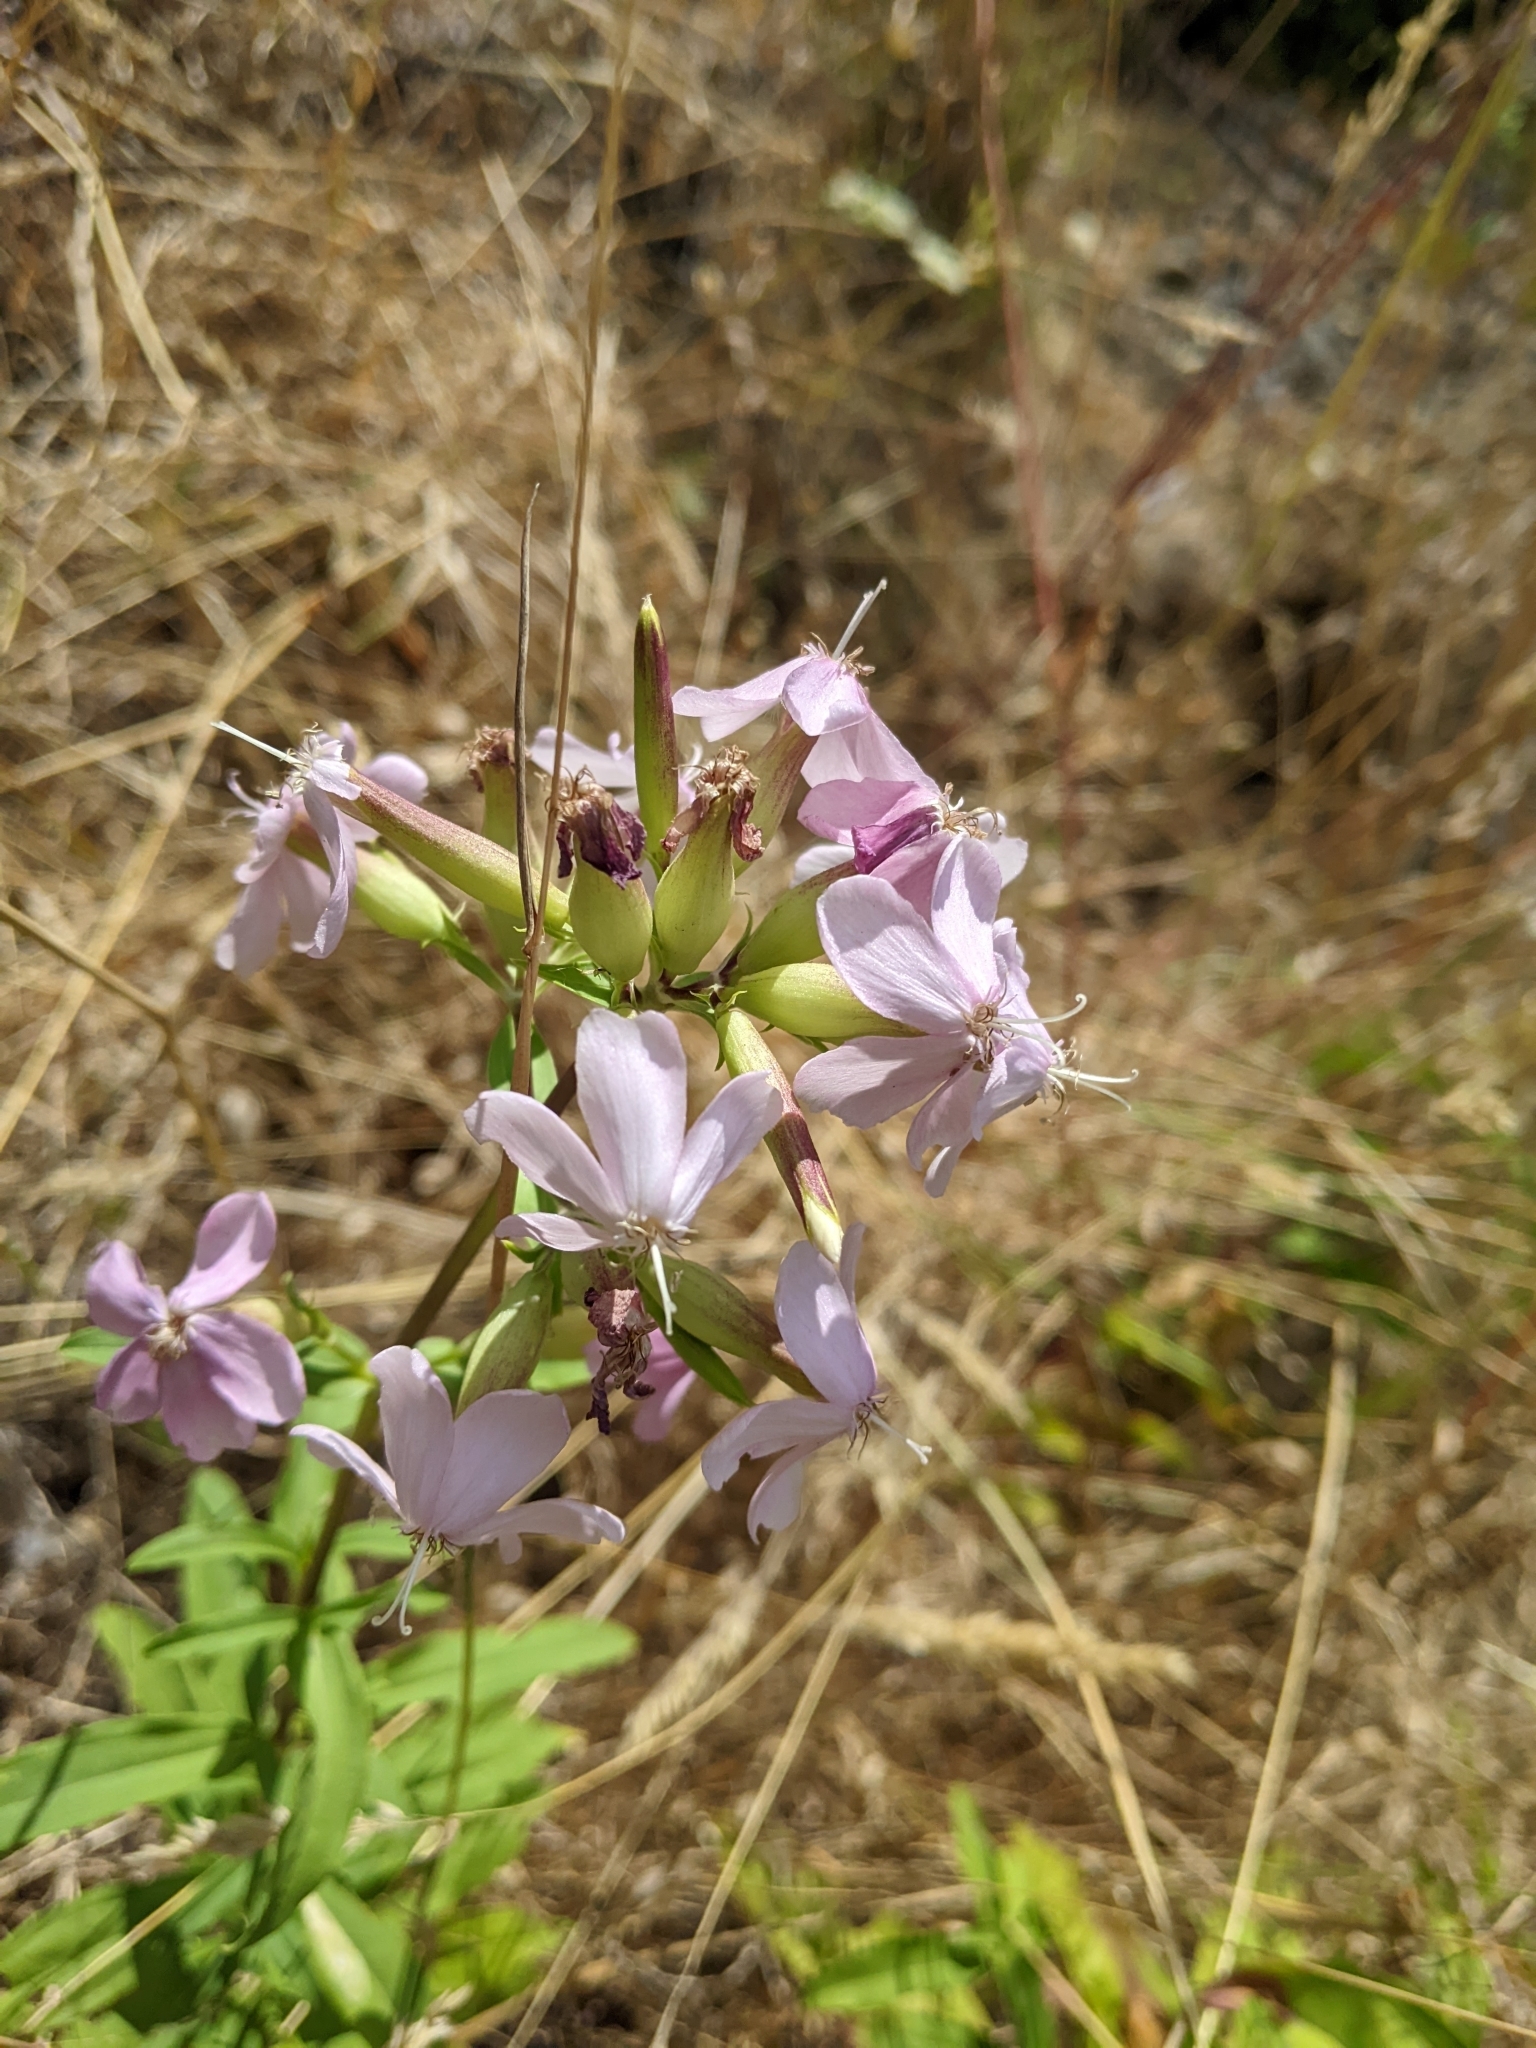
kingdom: Plantae
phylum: Tracheophyta
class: Magnoliopsida
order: Caryophyllales
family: Caryophyllaceae
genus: Saponaria
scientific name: Saponaria officinalis
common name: Soapwort
